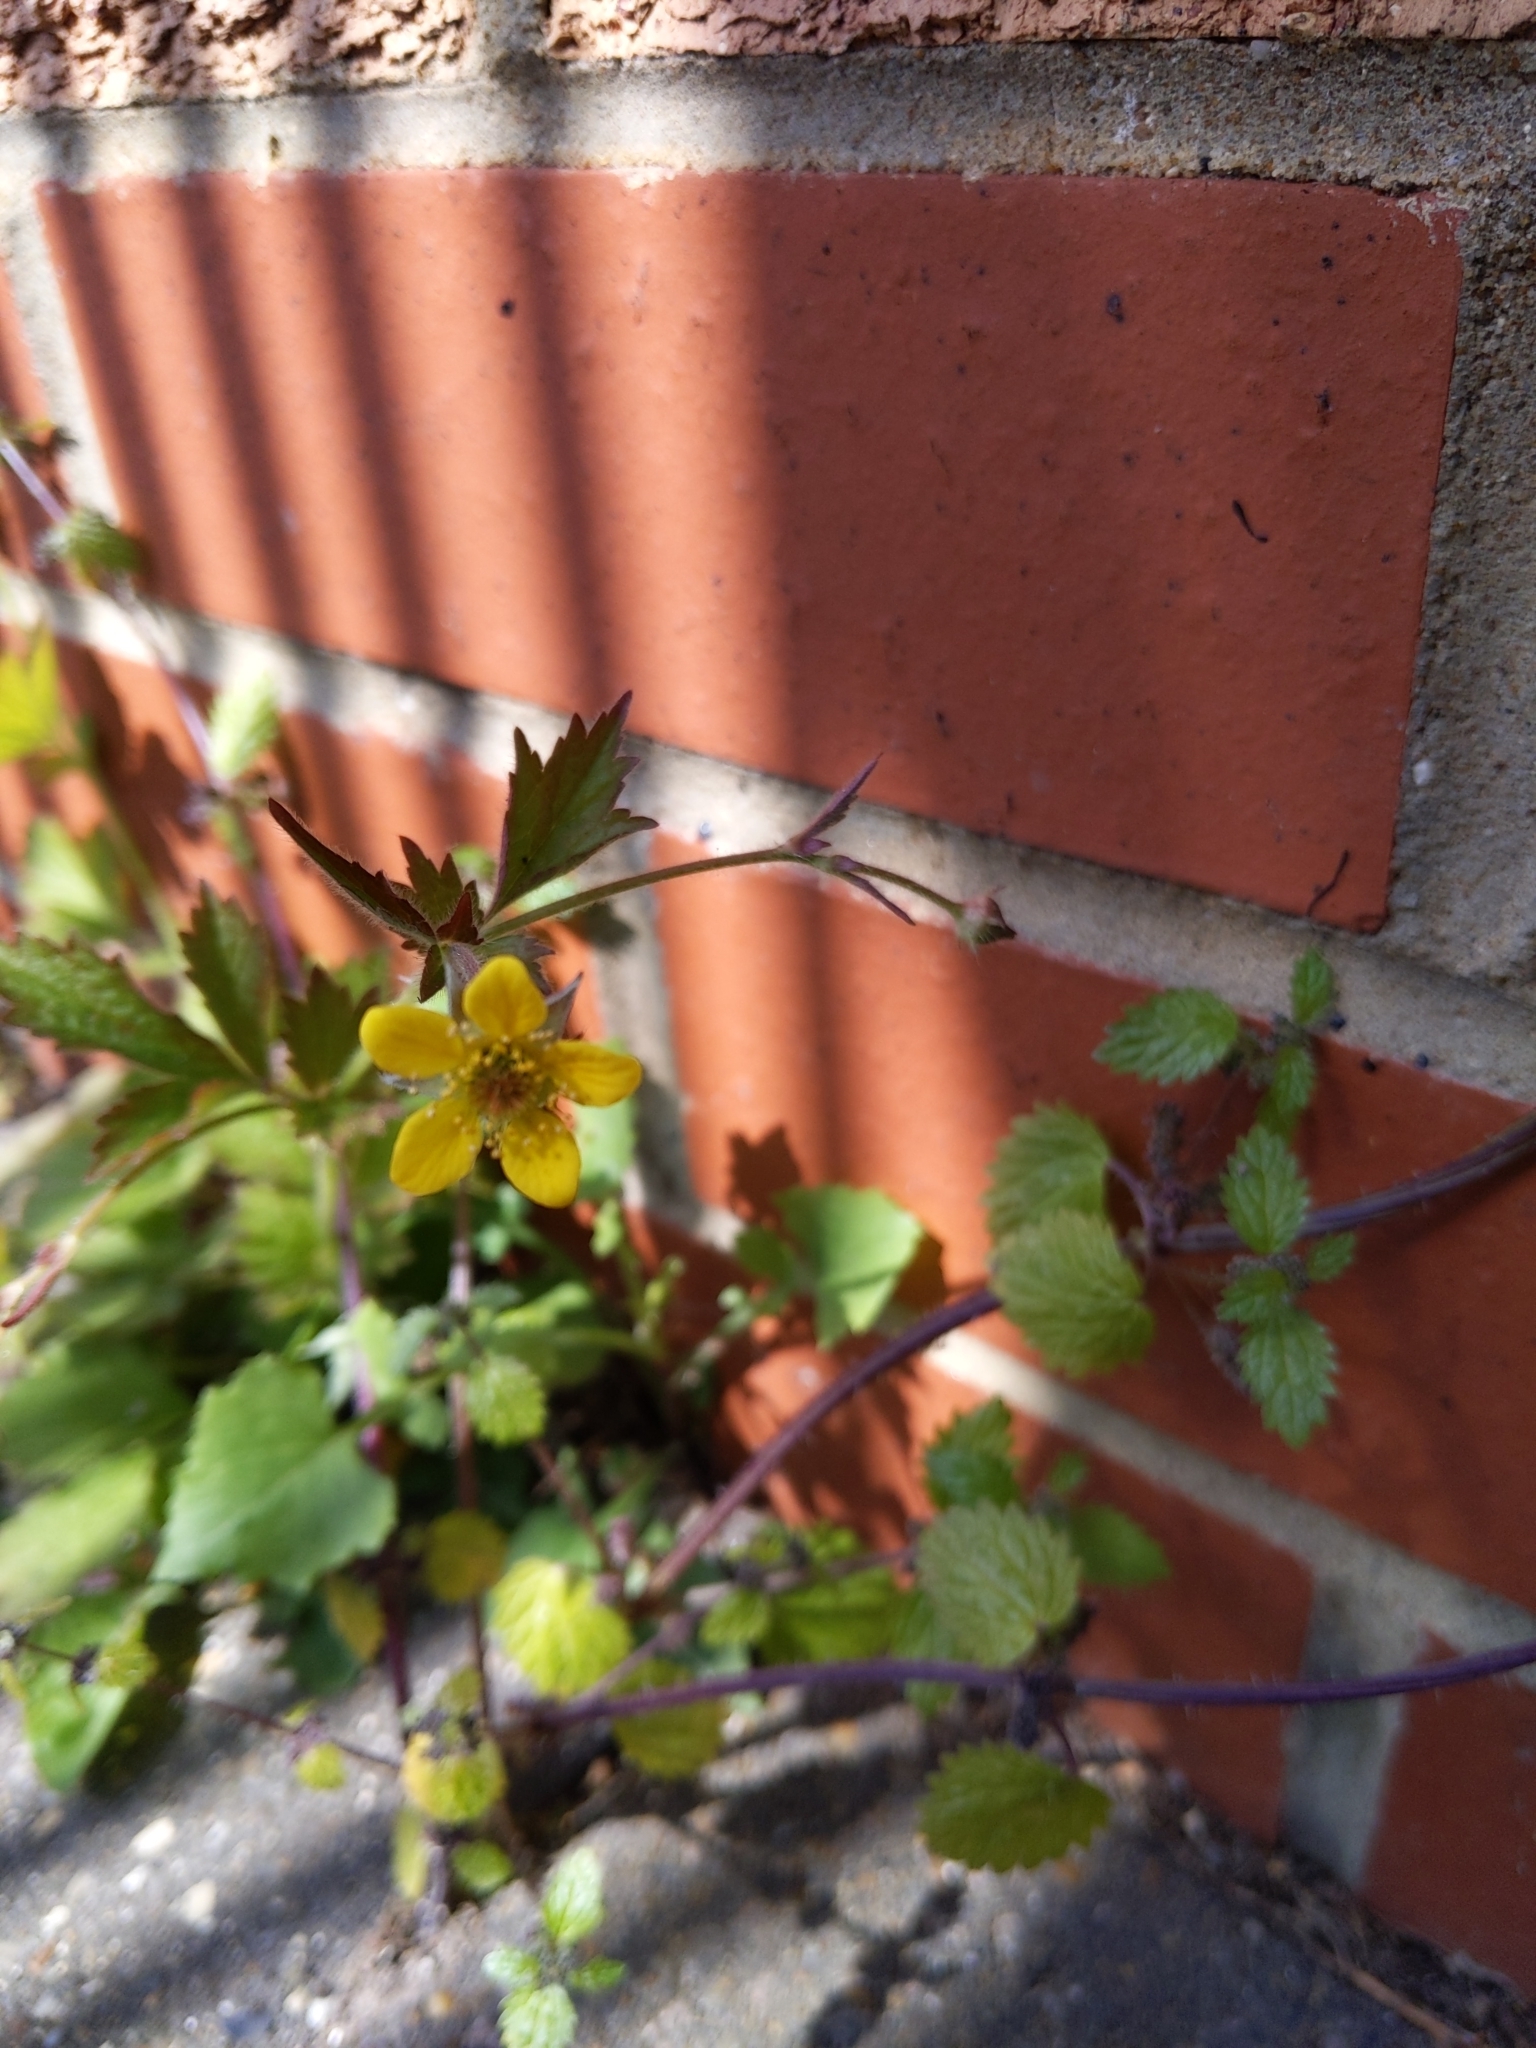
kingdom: Plantae
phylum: Tracheophyta
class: Magnoliopsida
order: Rosales
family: Rosaceae
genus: Geum
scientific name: Geum urbanum
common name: Wood avens
